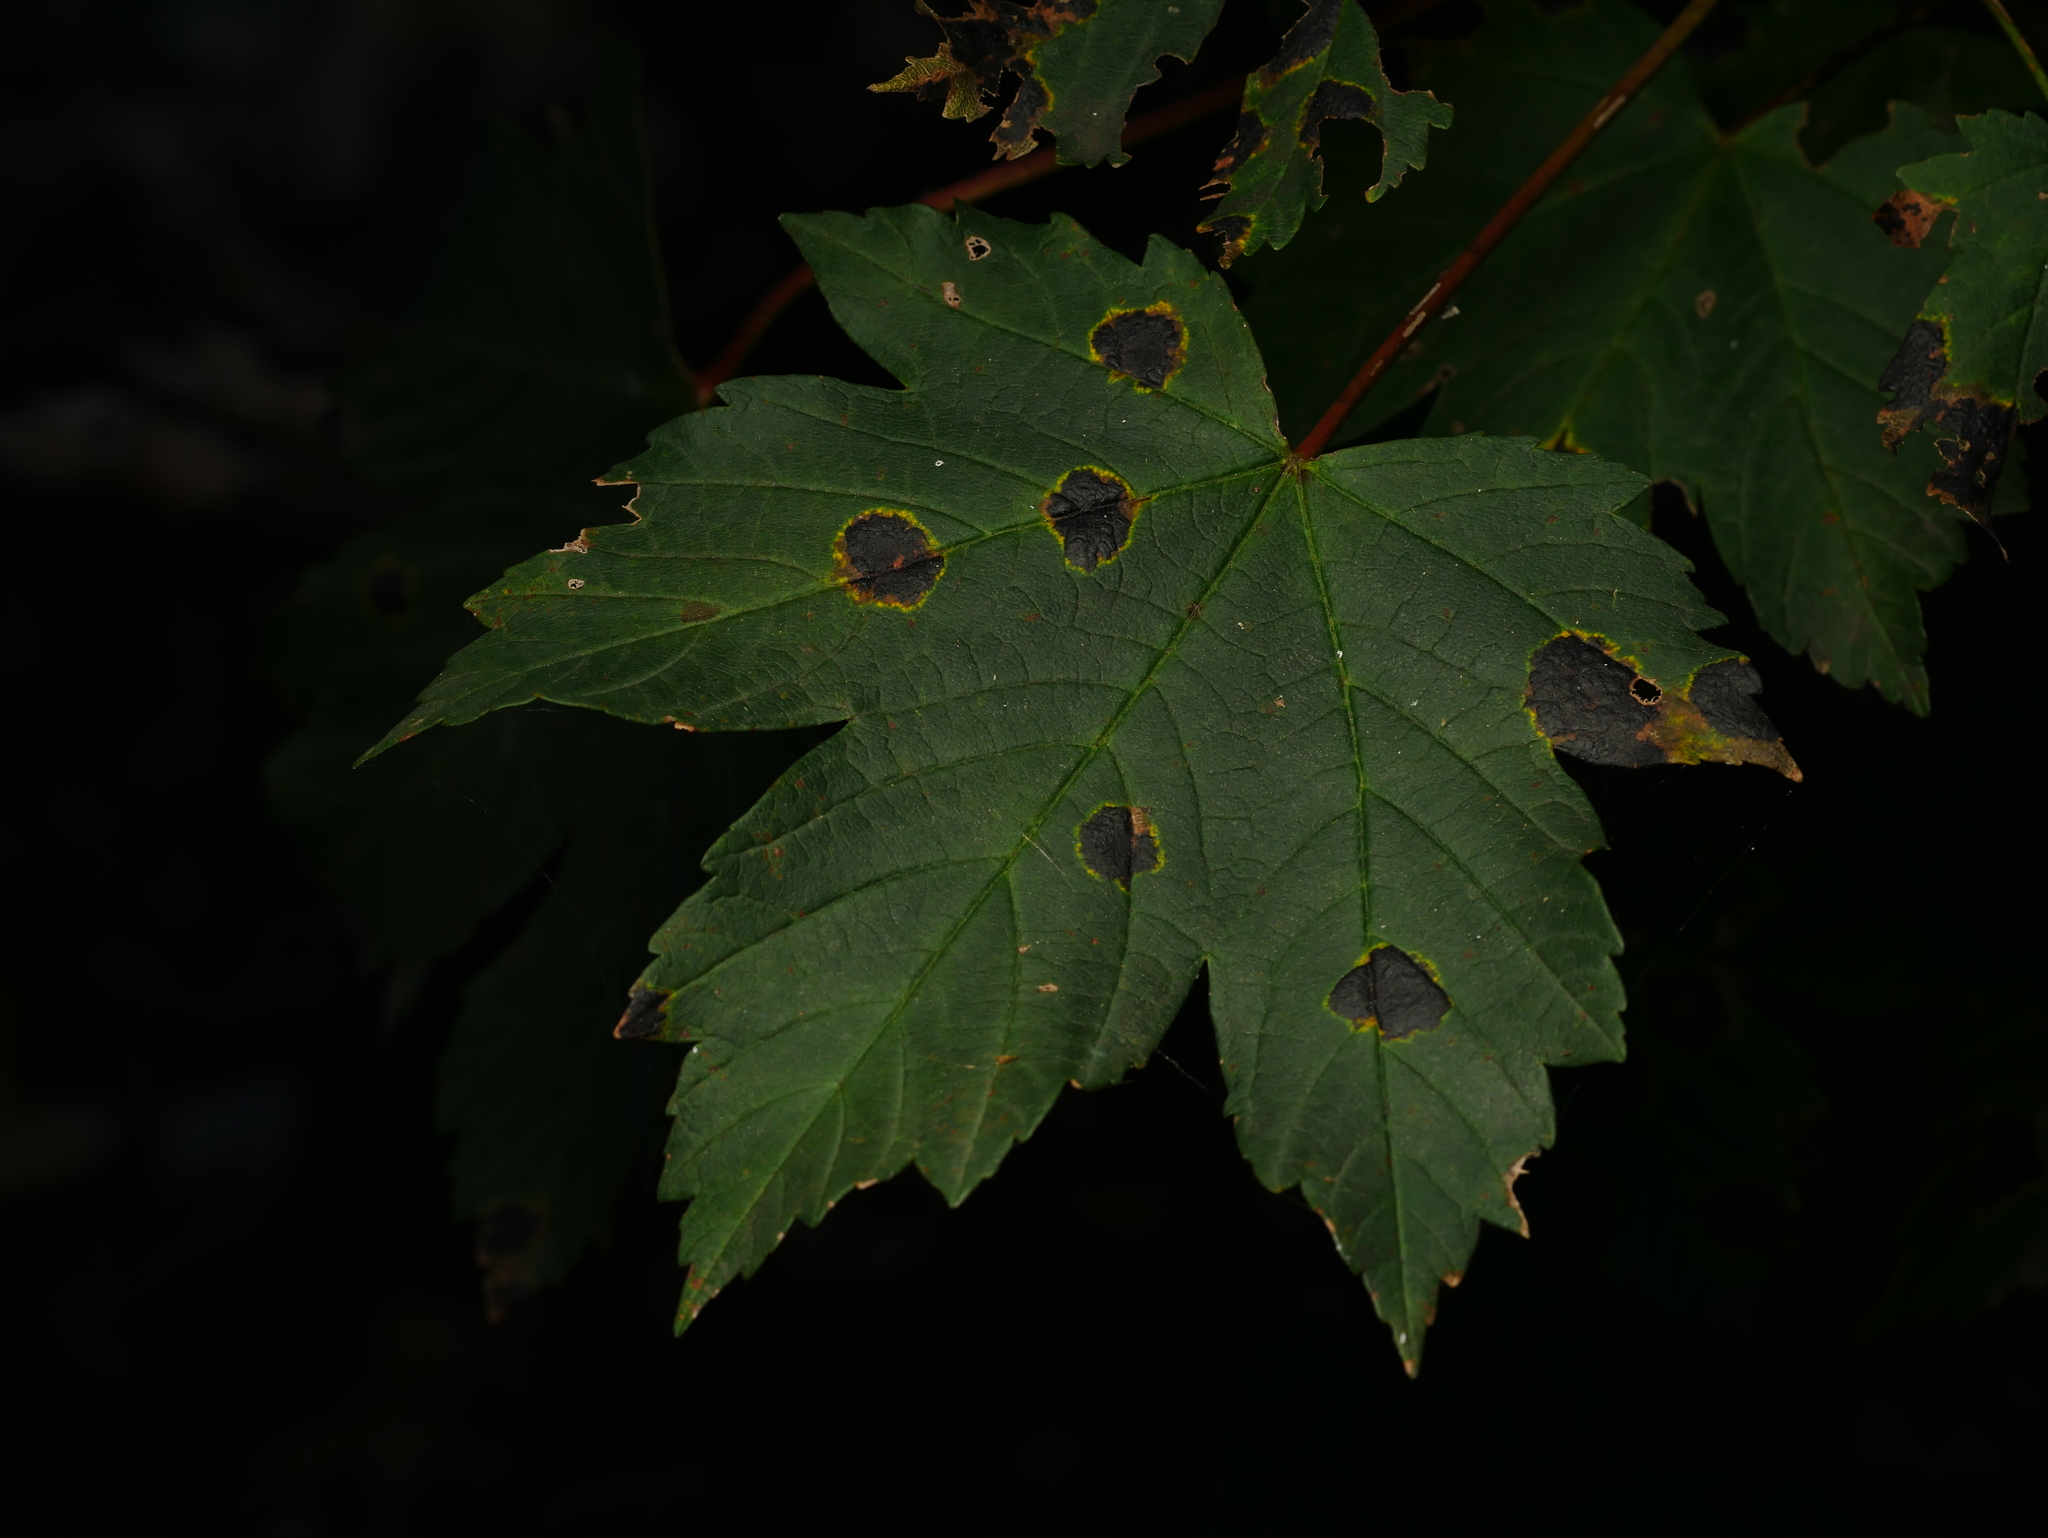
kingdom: Fungi
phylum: Ascomycota
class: Leotiomycetes
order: Rhytismatales
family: Rhytismataceae
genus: Rhytisma
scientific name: Rhytisma acerinum
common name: European tar spot
